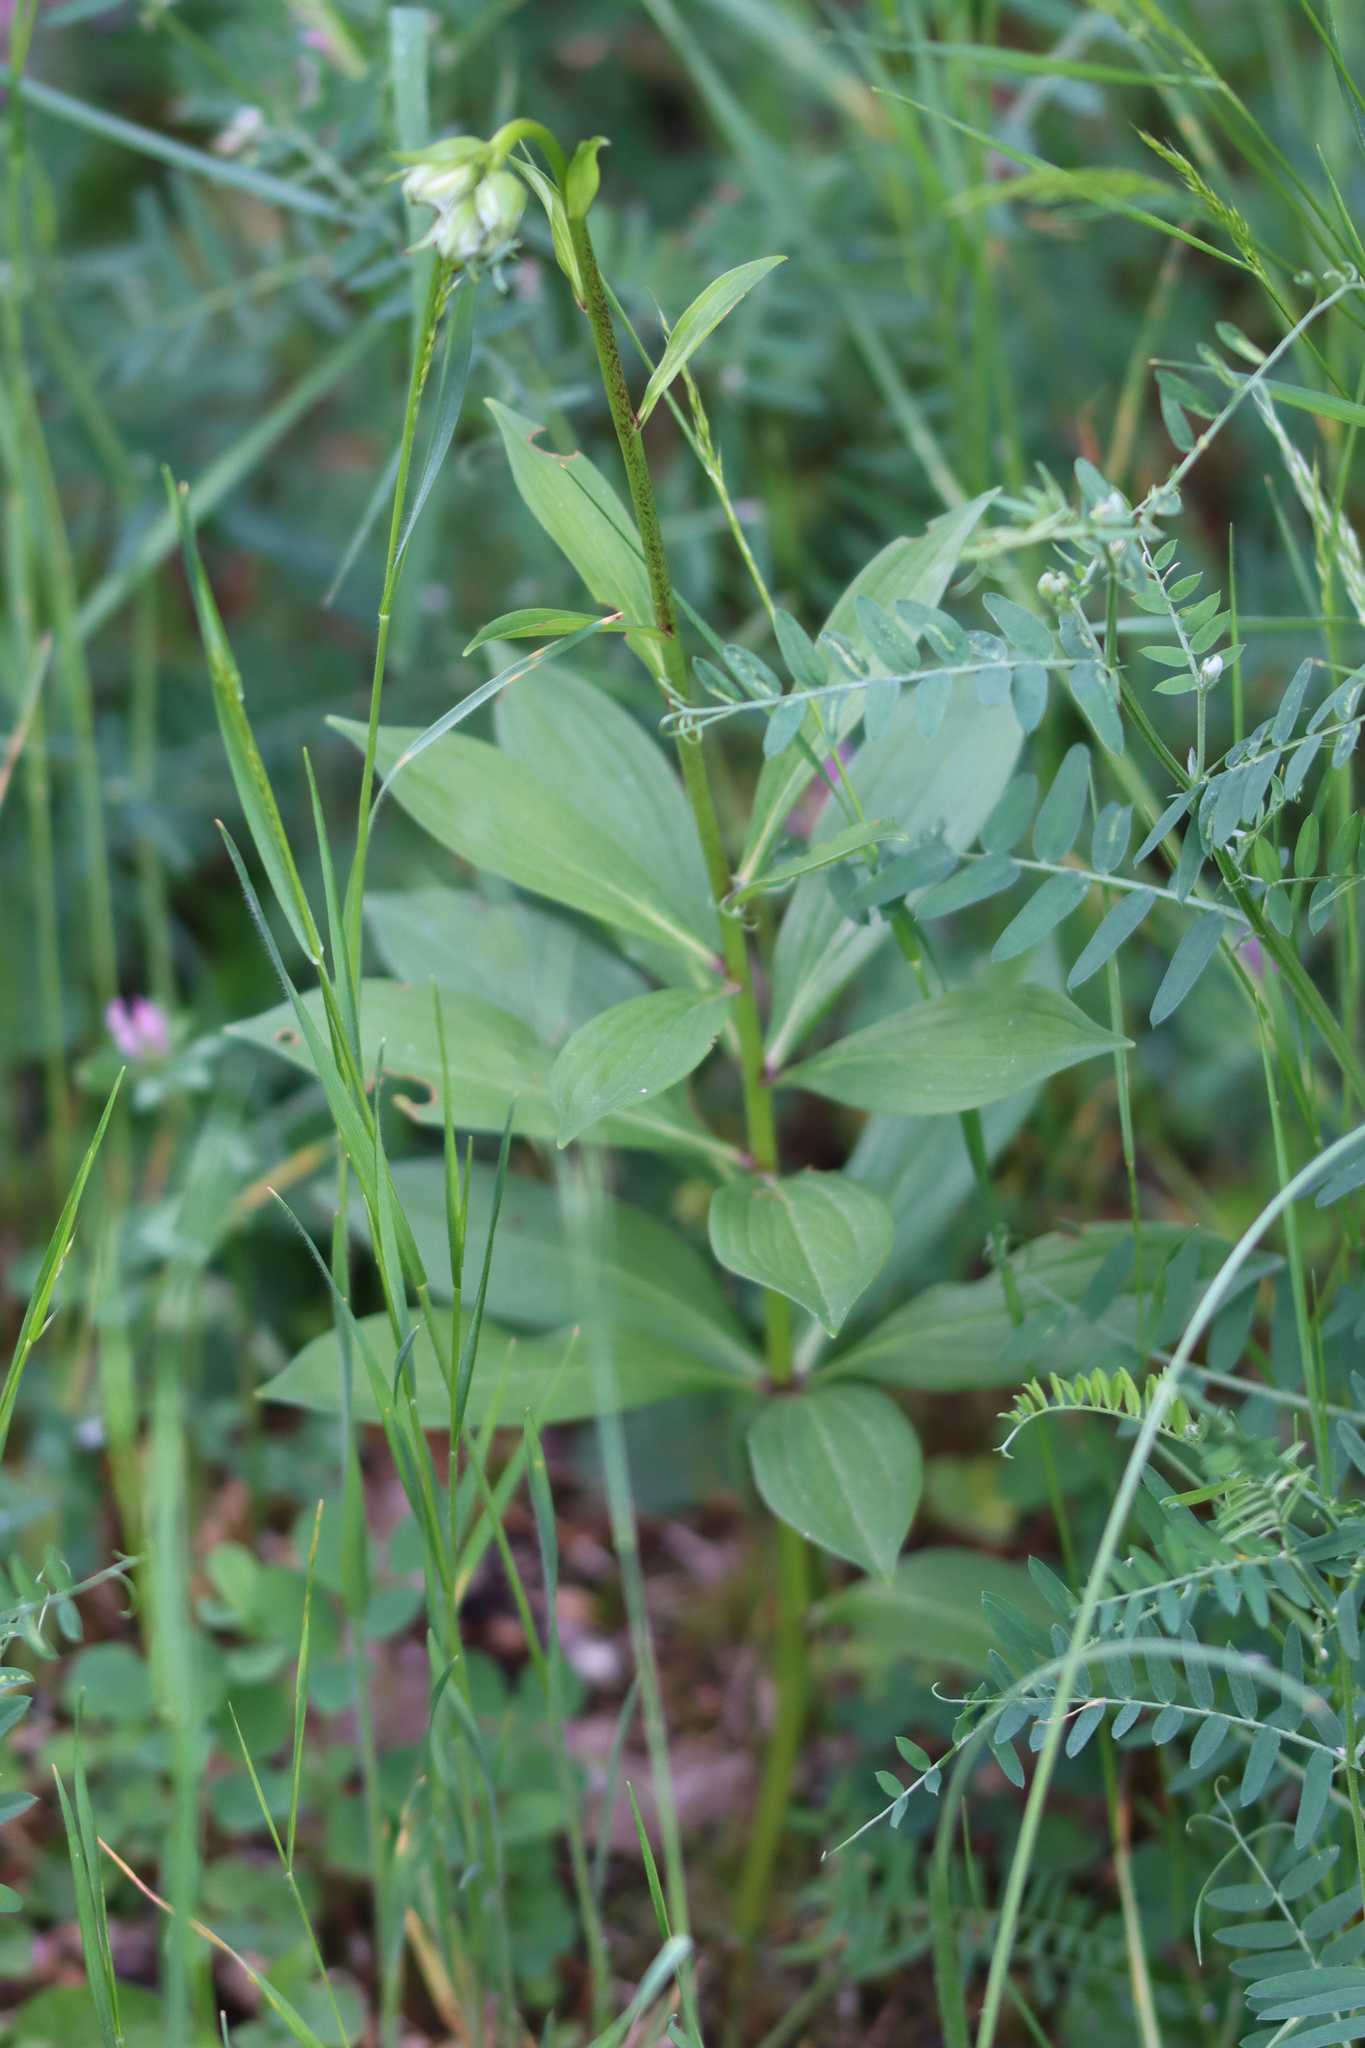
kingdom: Plantae
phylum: Tracheophyta
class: Liliopsida
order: Liliales
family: Liliaceae
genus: Lilium
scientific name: Lilium martagon
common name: Martagon lily
